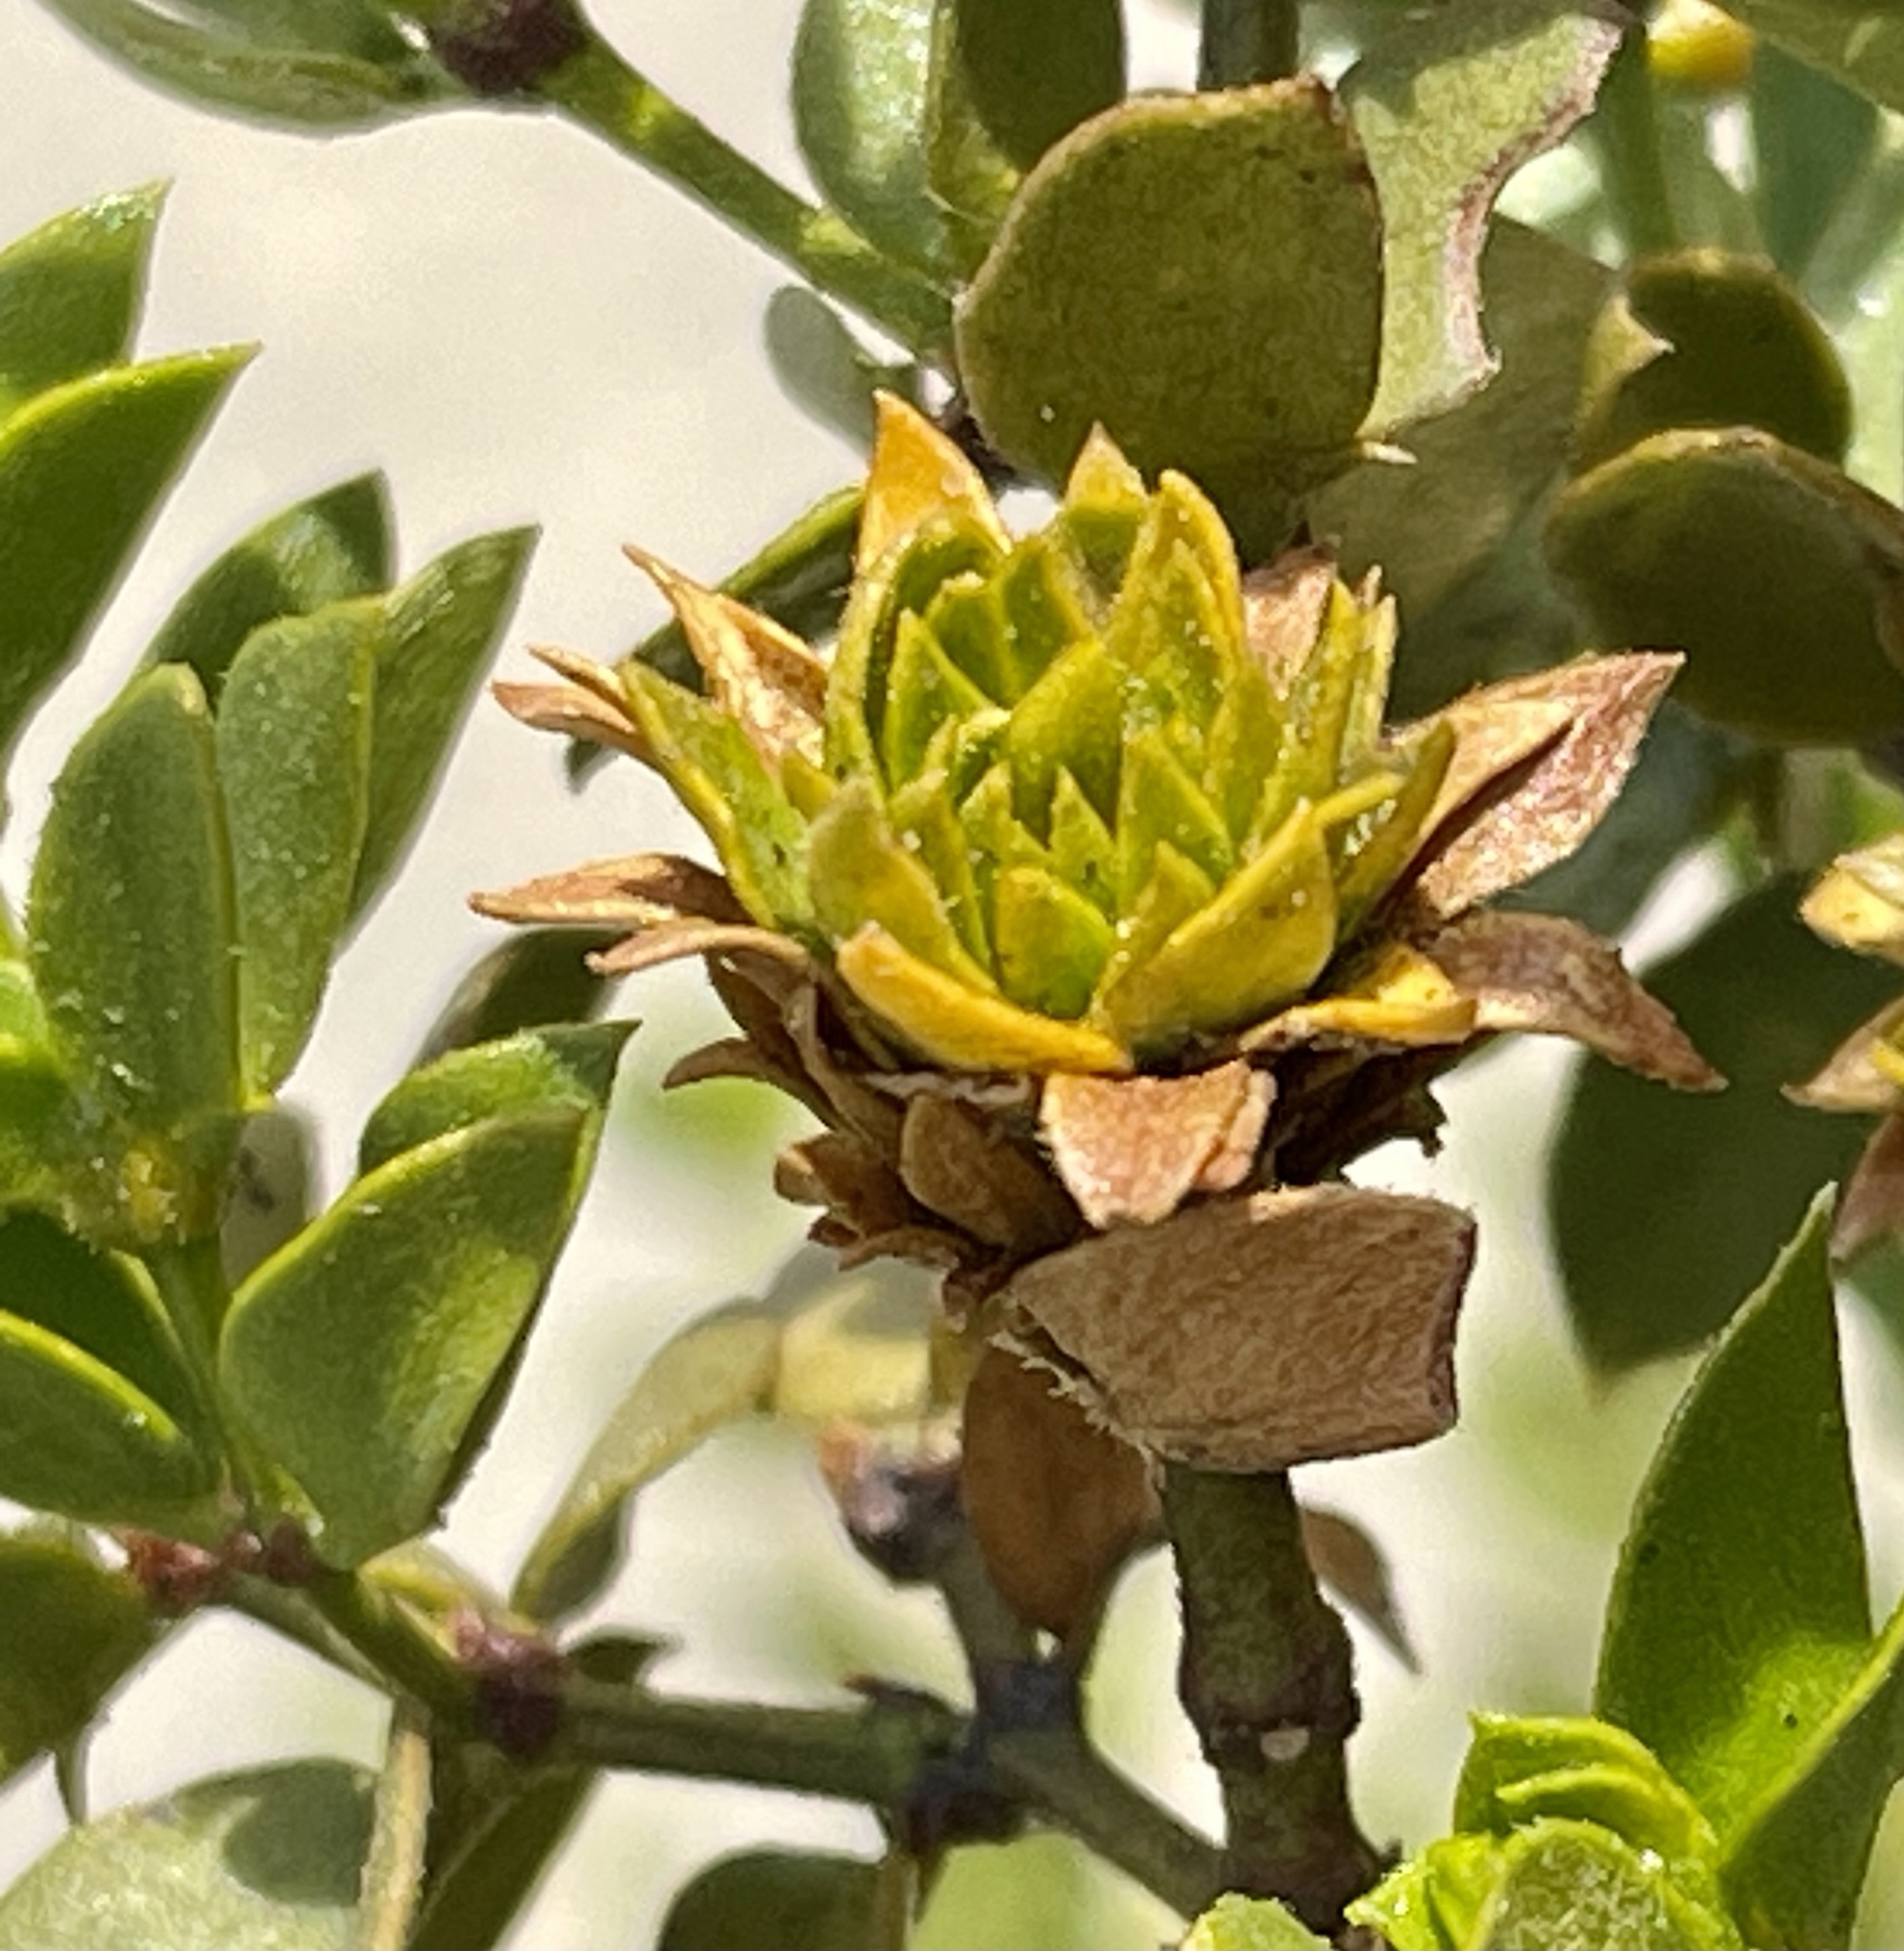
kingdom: Plantae
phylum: Tracheophyta
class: Magnoliopsida
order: Zygophyllales
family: Zygophyllaceae
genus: Larrea
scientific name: Larrea tridentata
